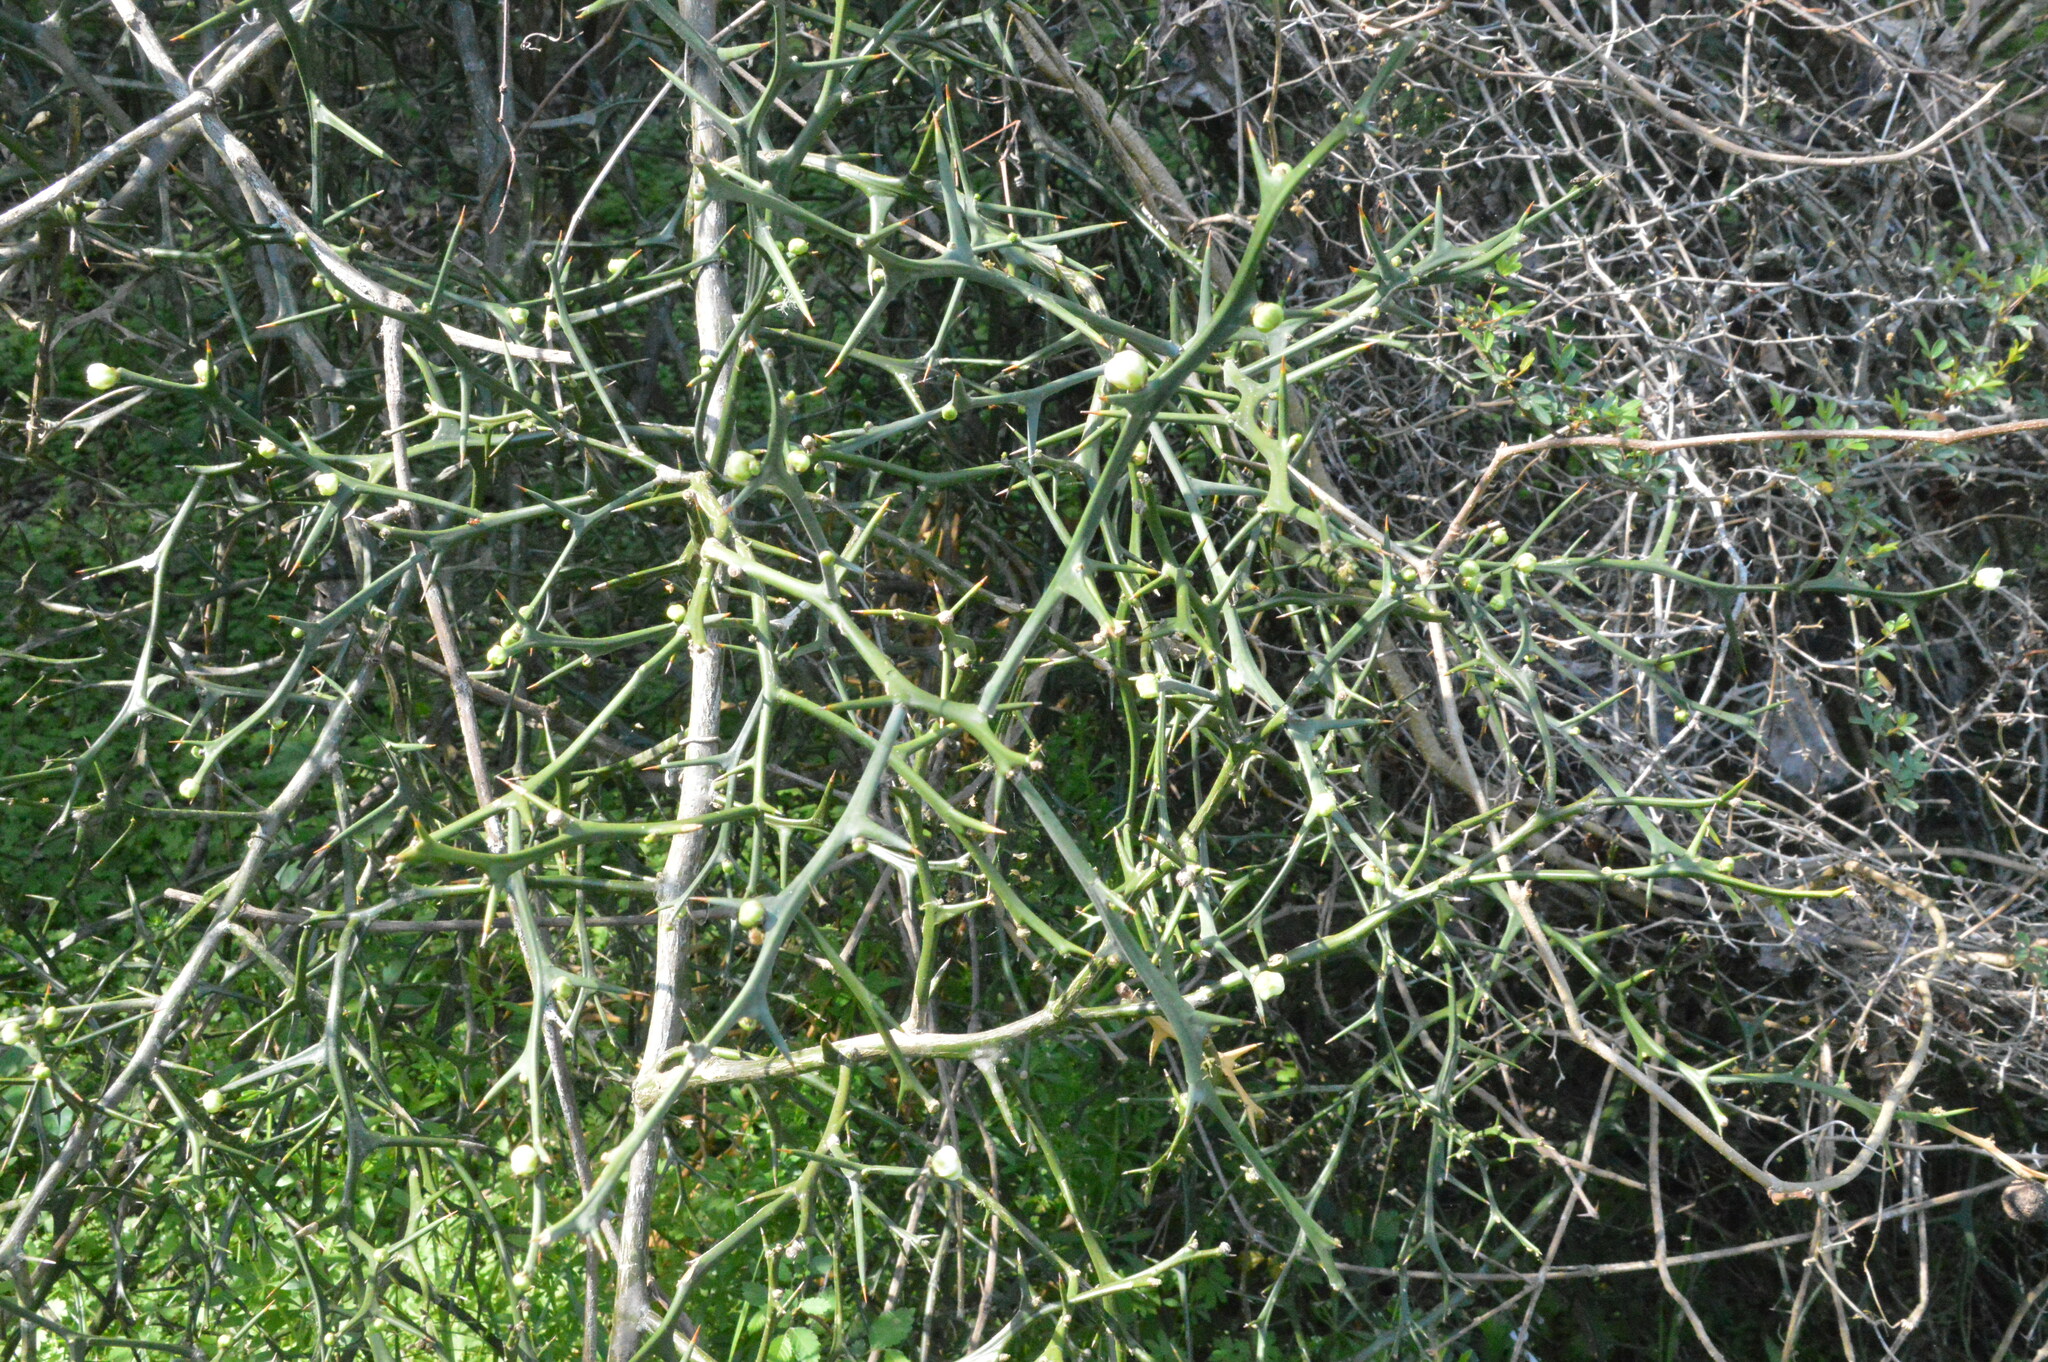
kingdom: Plantae
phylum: Tracheophyta
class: Magnoliopsida
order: Sapindales
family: Rutaceae
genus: Citrus
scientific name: Citrus trifoliata
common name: Japanese bitter-orange
